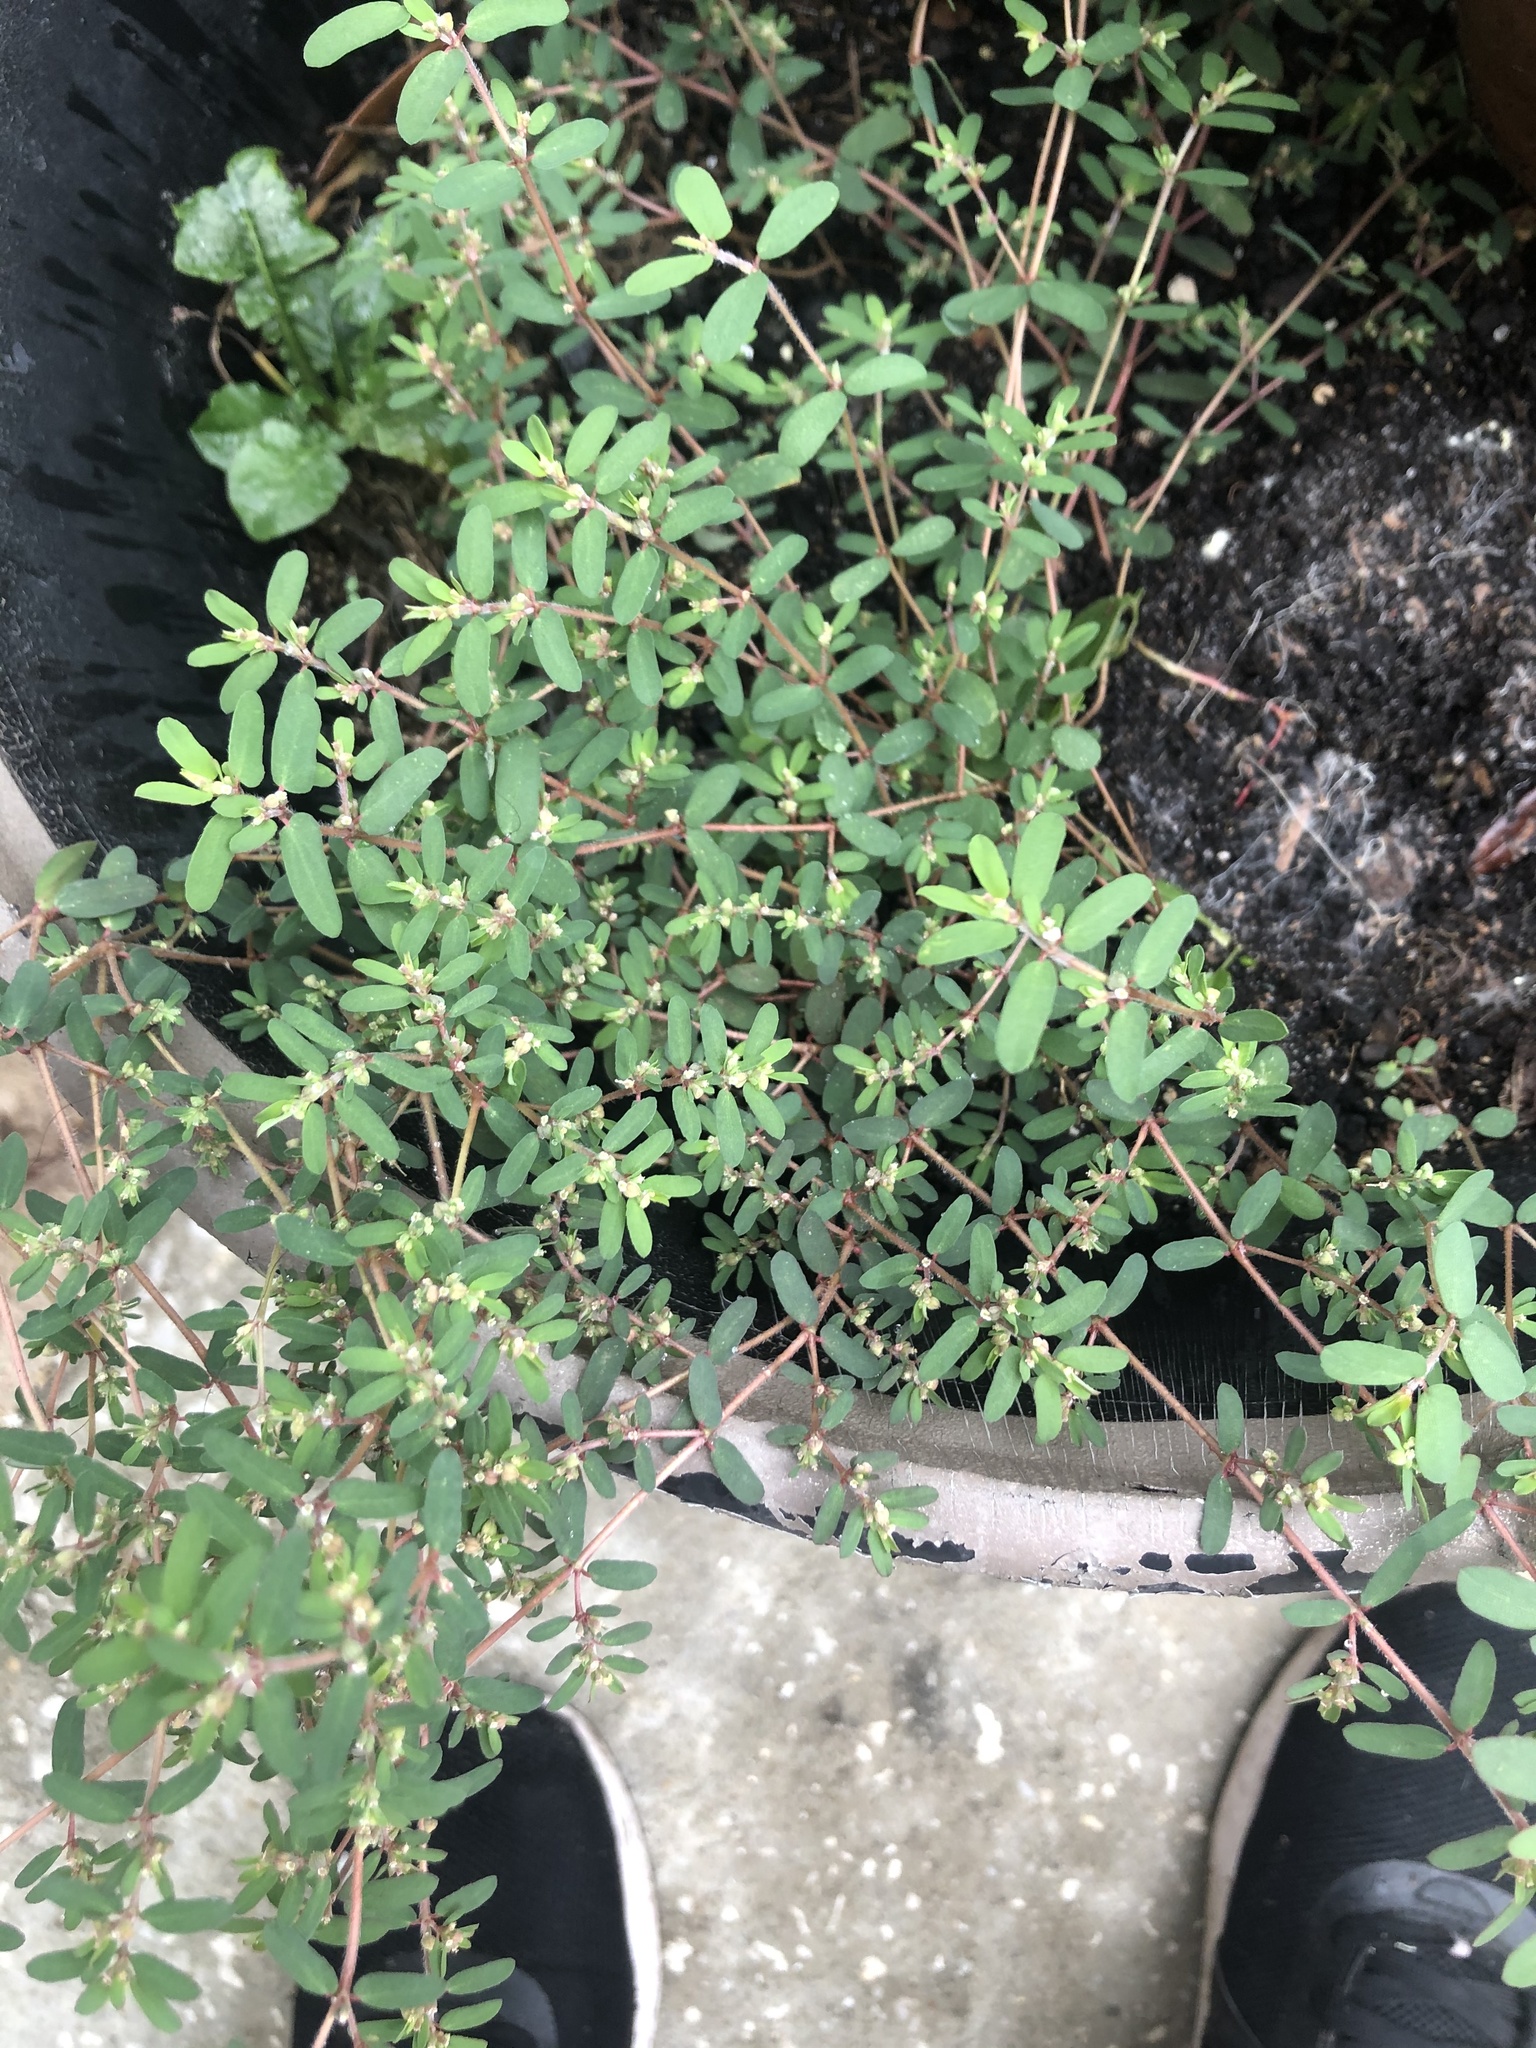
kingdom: Plantae
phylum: Tracheophyta
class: Magnoliopsida
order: Malpighiales
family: Euphorbiaceae
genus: Euphorbia
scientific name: Euphorbia maculata
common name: Spotted spurge
